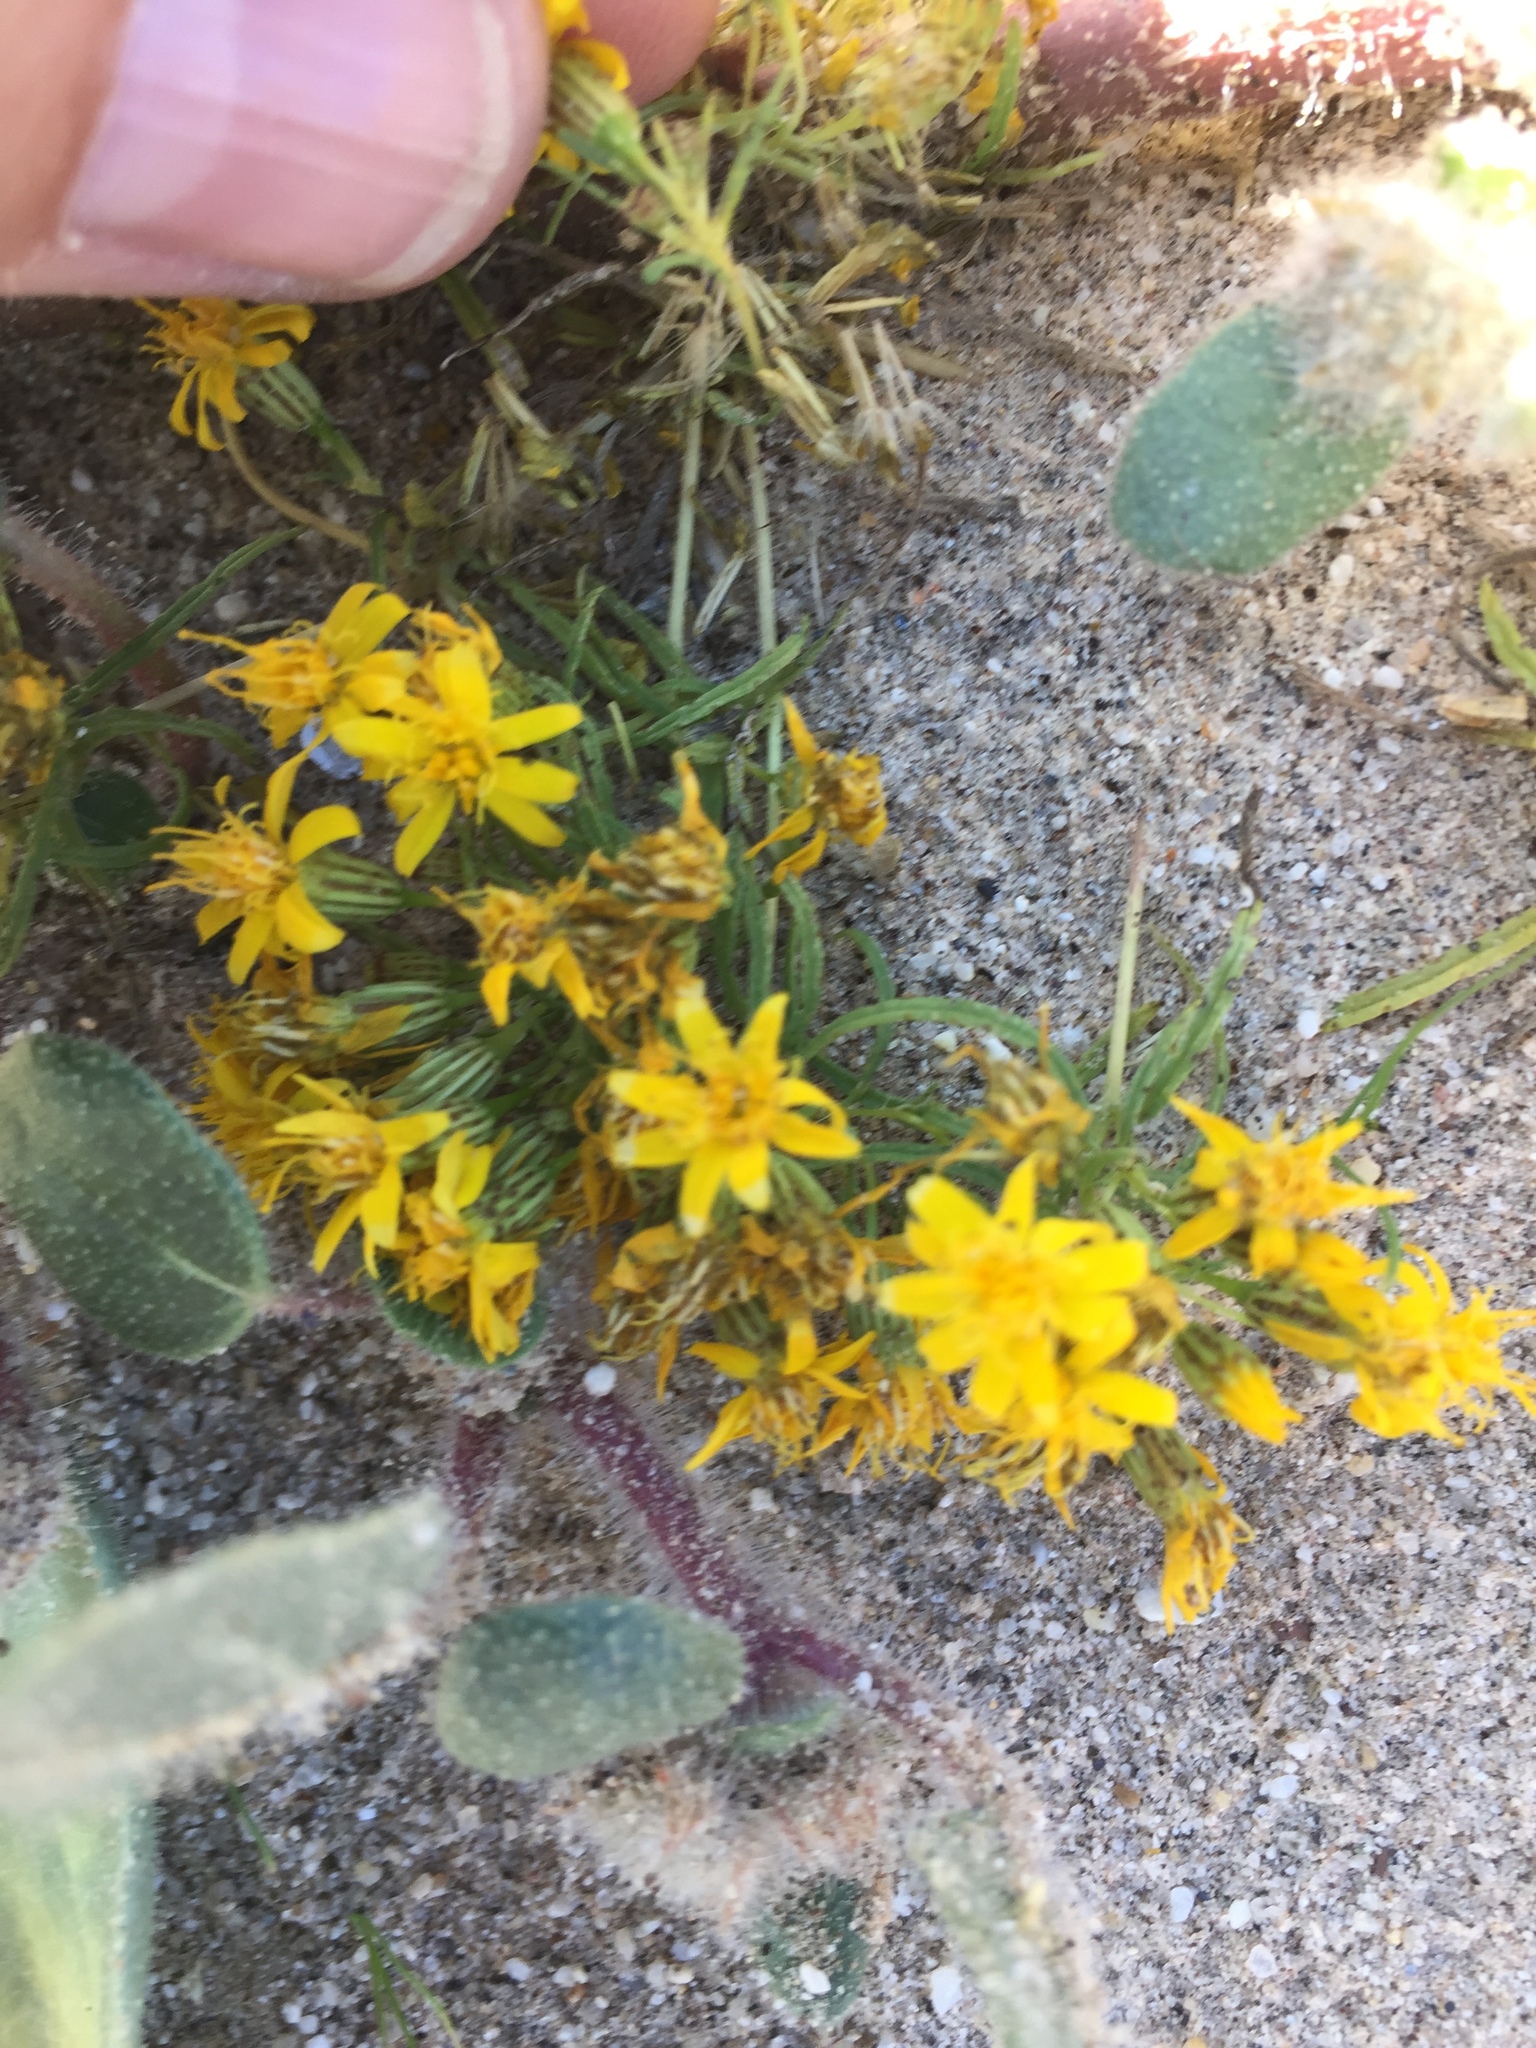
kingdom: Plantae
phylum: Tracheophyta
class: Magnoliopsida
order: Asterales
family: Asteraceae
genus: Pectis
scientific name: Pectis papposa
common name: Many-bristle chinchweed
